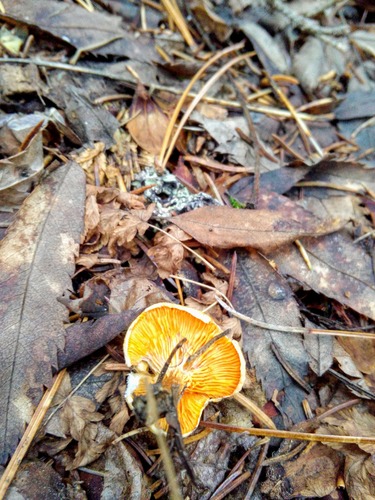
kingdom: Fungi
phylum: Basidiomycota
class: Agaricomycetes
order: Boletales
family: Hygrophoropsidaceae
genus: Hygrophoropsis
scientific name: Hygrophoropsis aurantiaca
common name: False chanterelle
